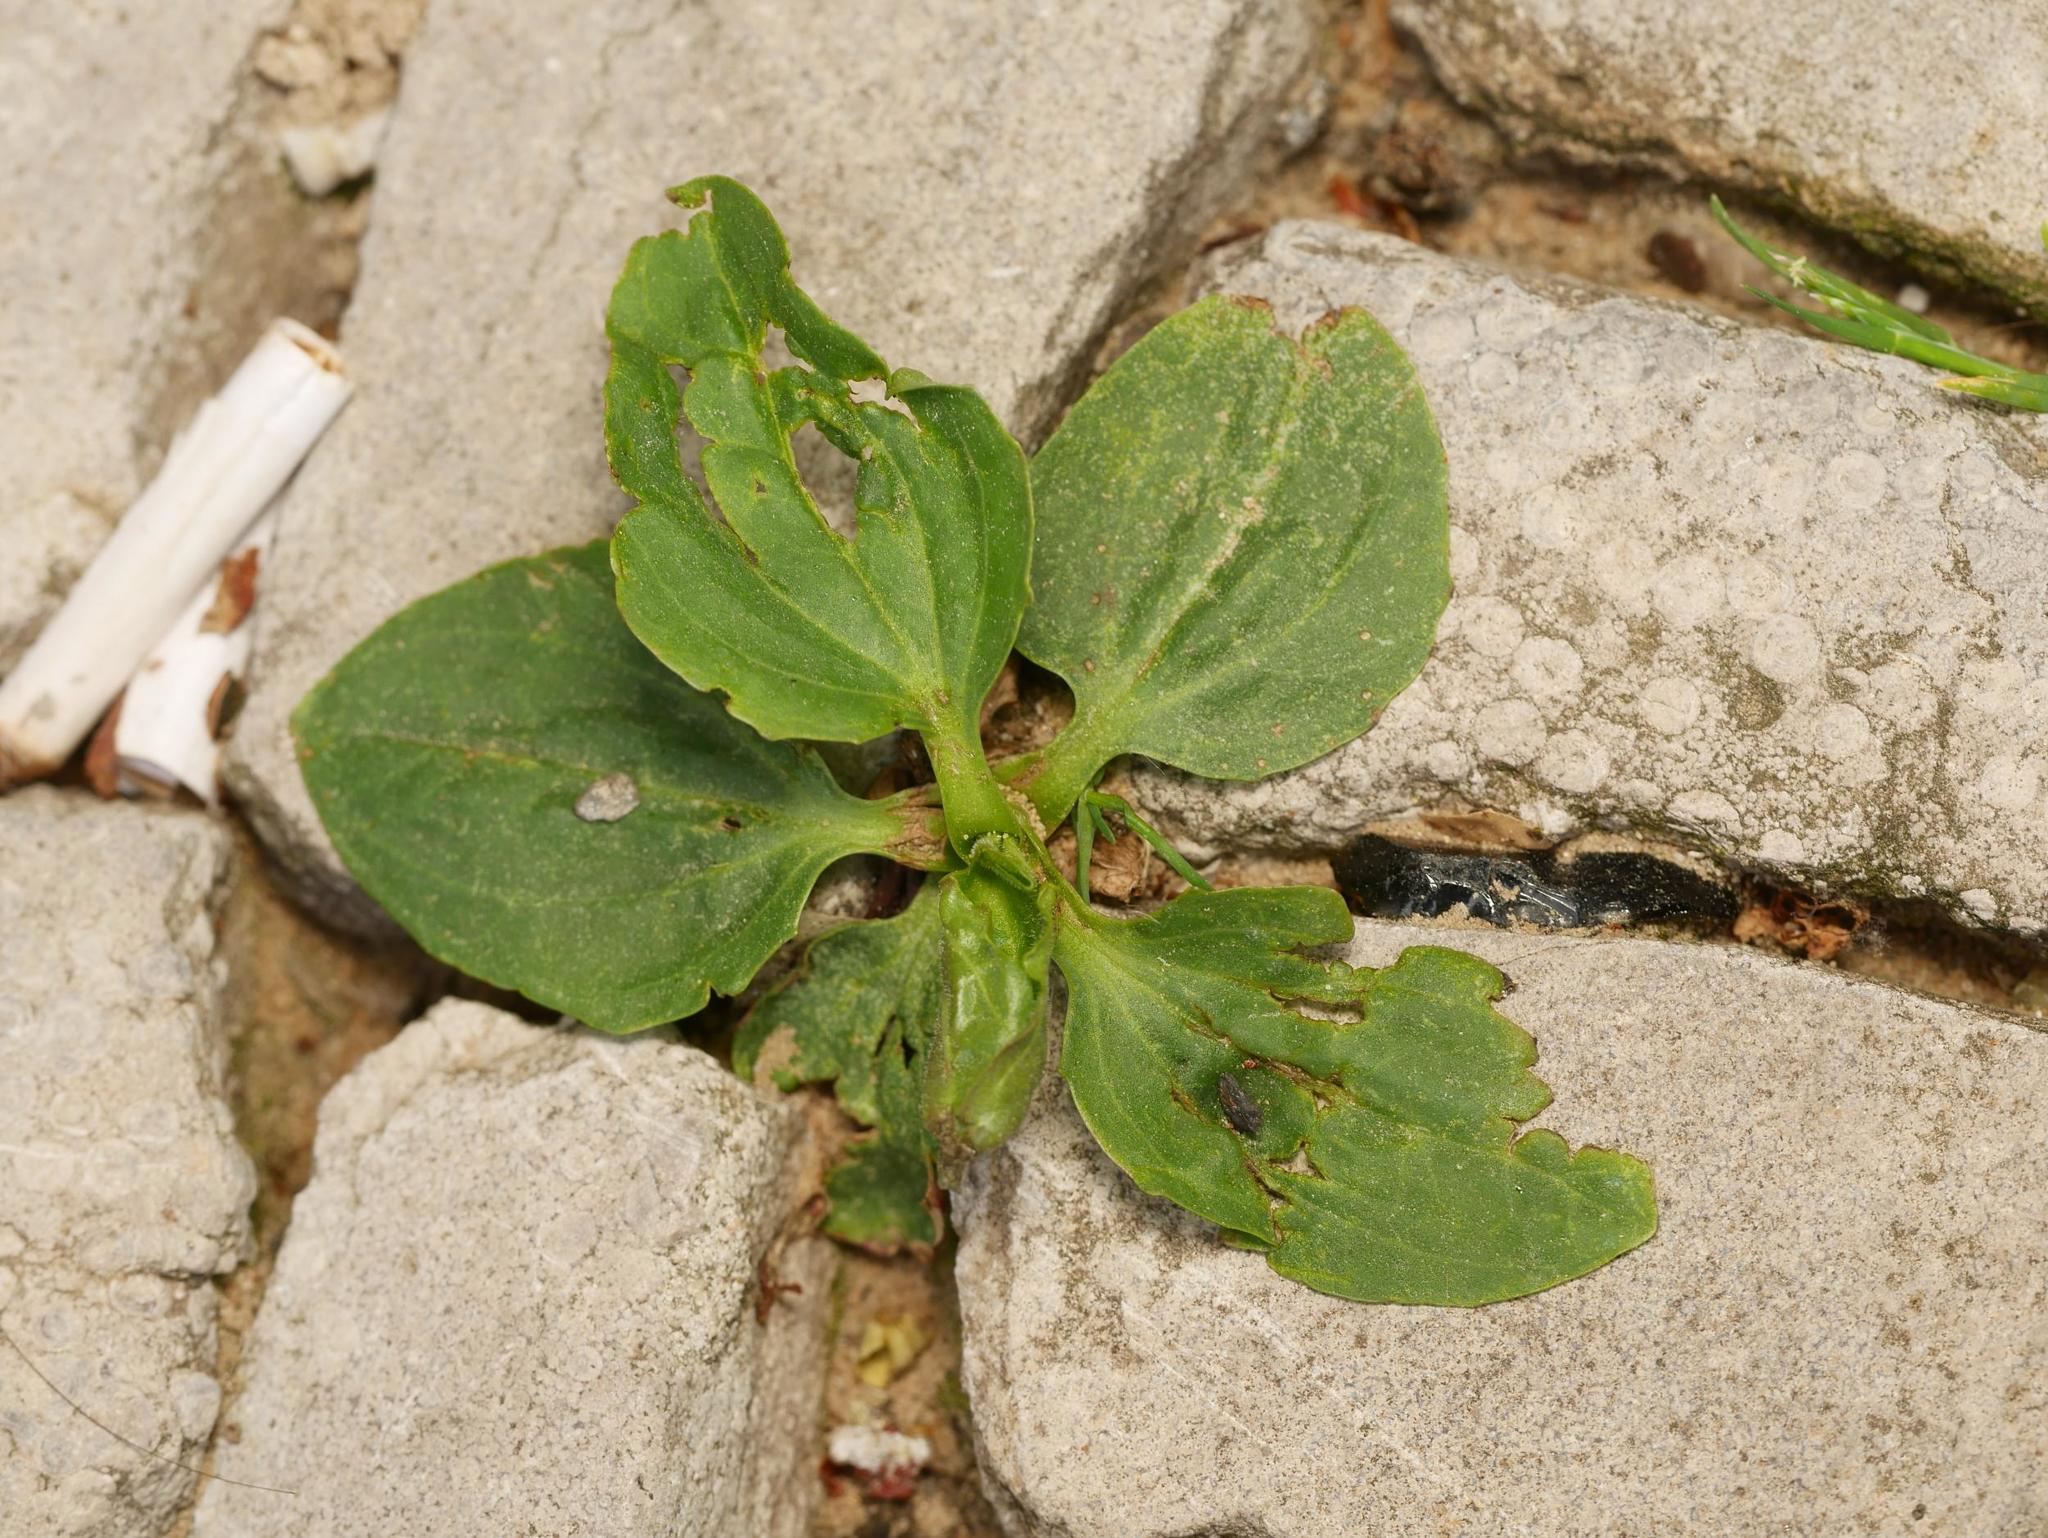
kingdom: Plantae
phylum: Tracheophyta
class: Magnoliopsida
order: Lamiales
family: Plantaginaceae
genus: Plantago
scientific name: Plantago major
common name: Common plantain
